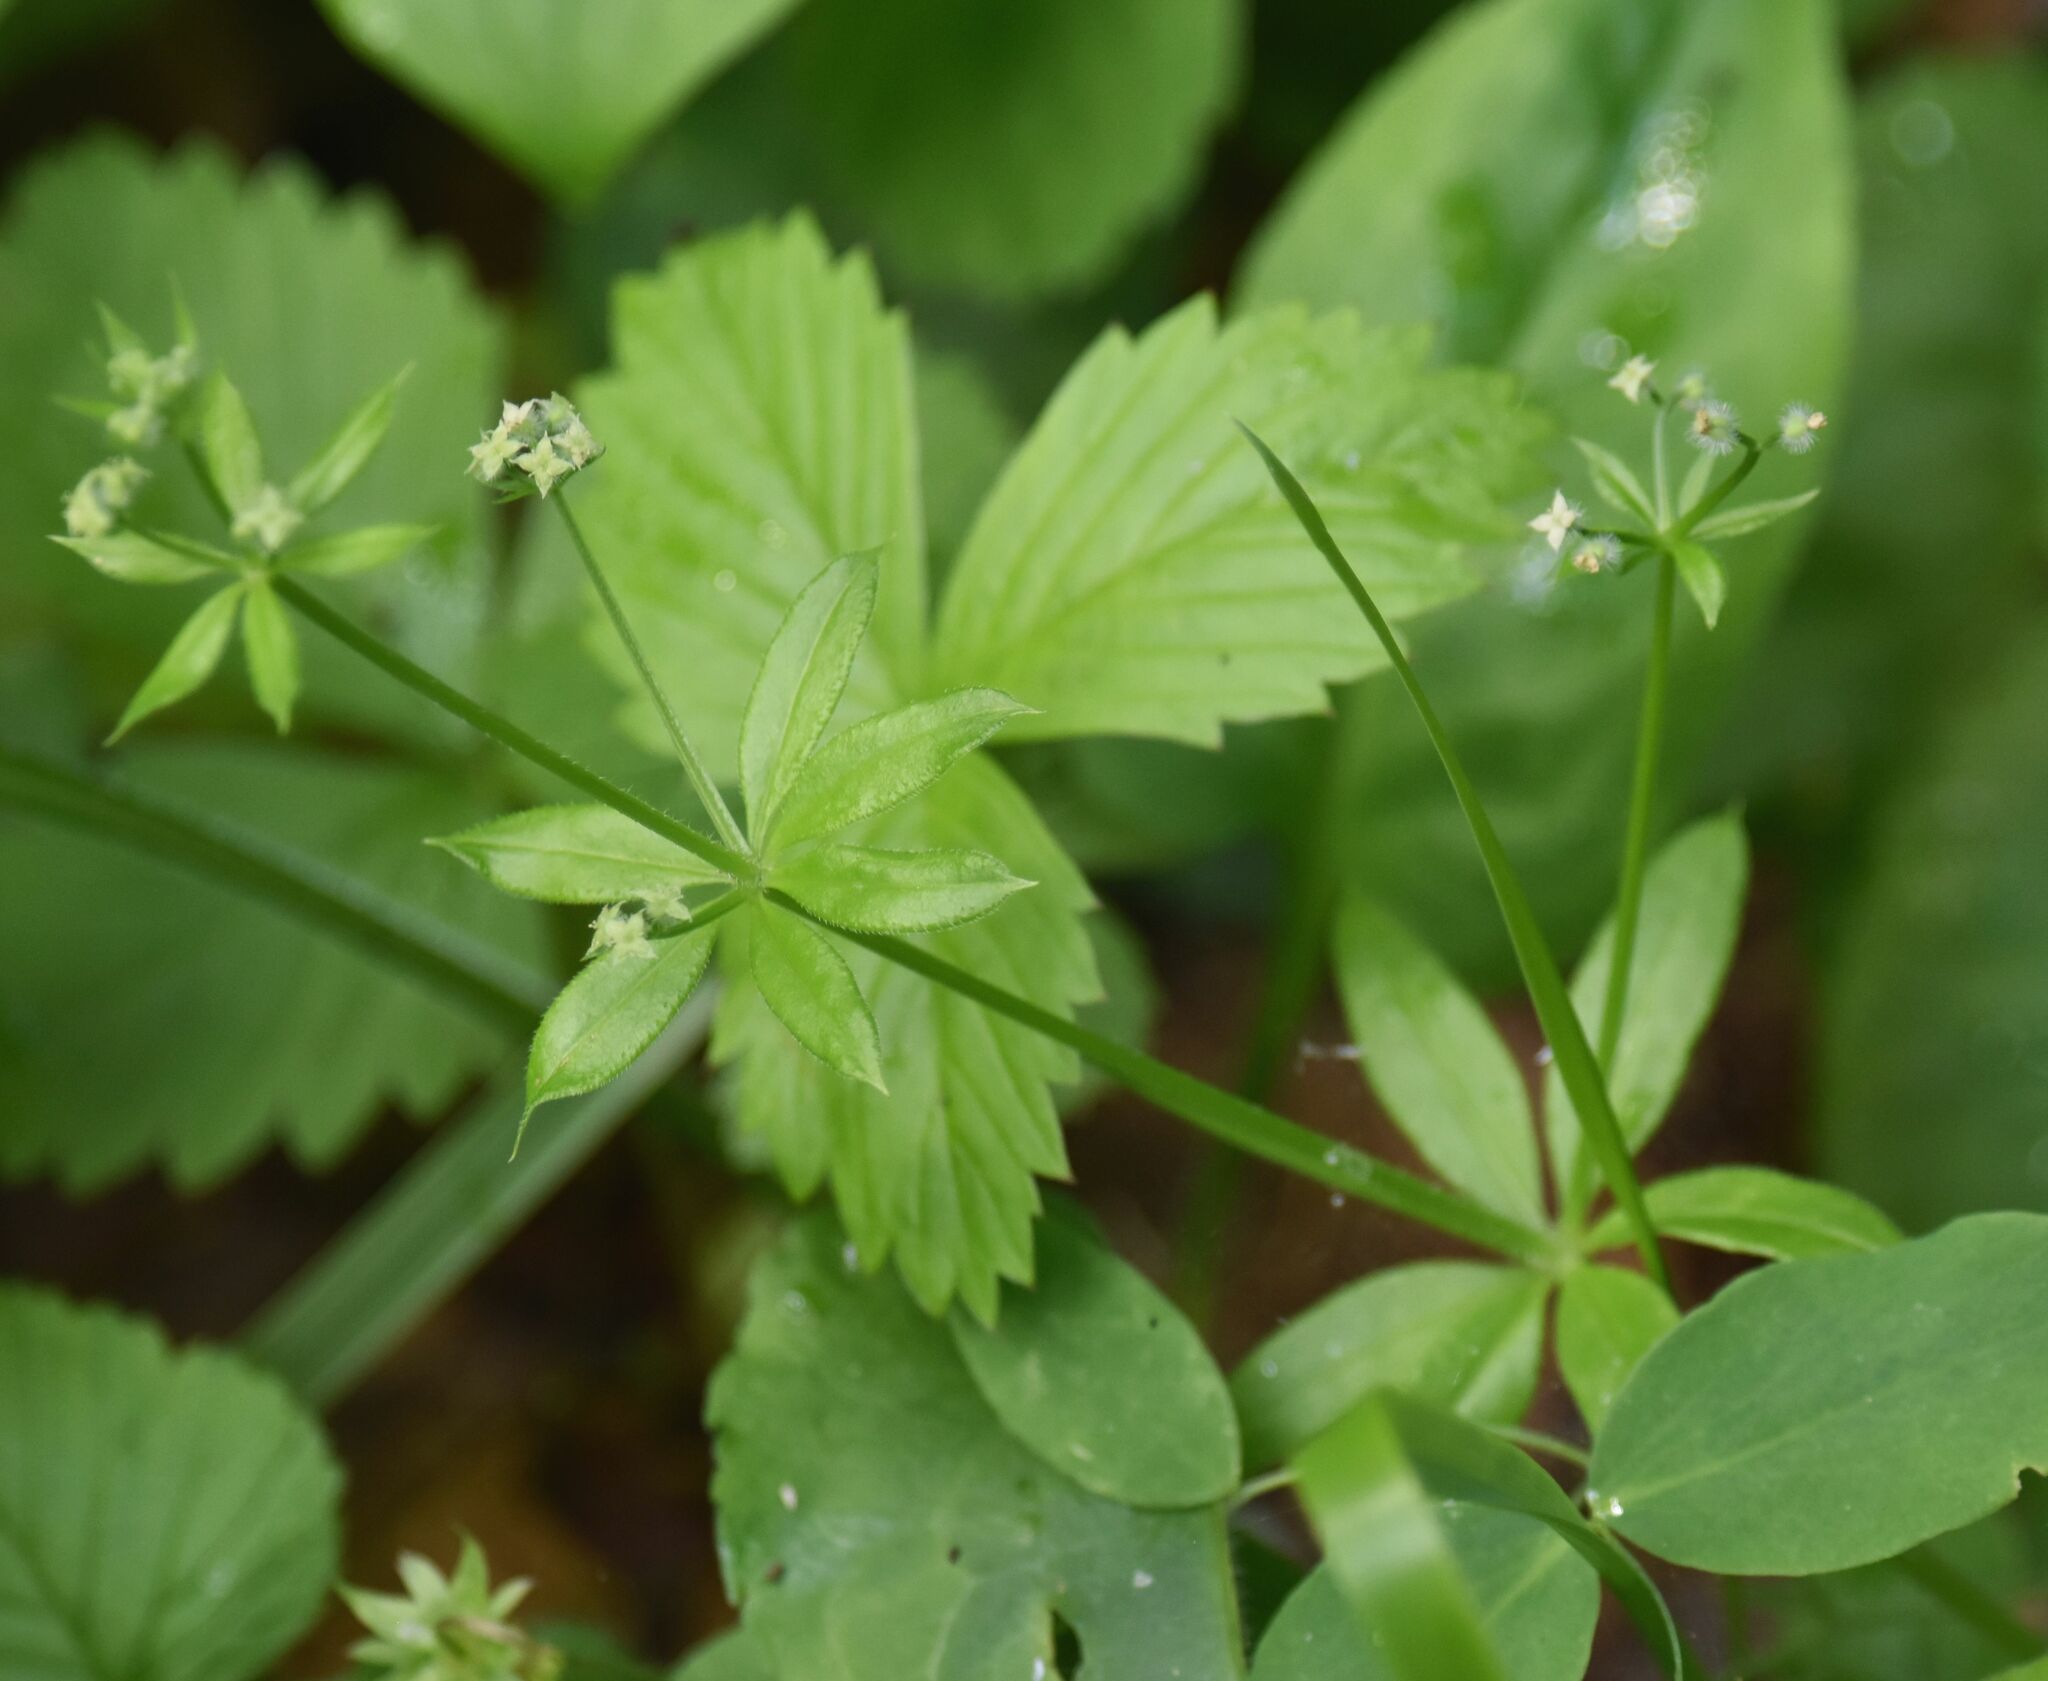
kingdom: Plantae
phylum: Tracheophyta
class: Magnoliopsida
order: Gentianales
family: Rubiaceae
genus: Galium
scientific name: Galium triflorum
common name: Fragrant bedstraw
